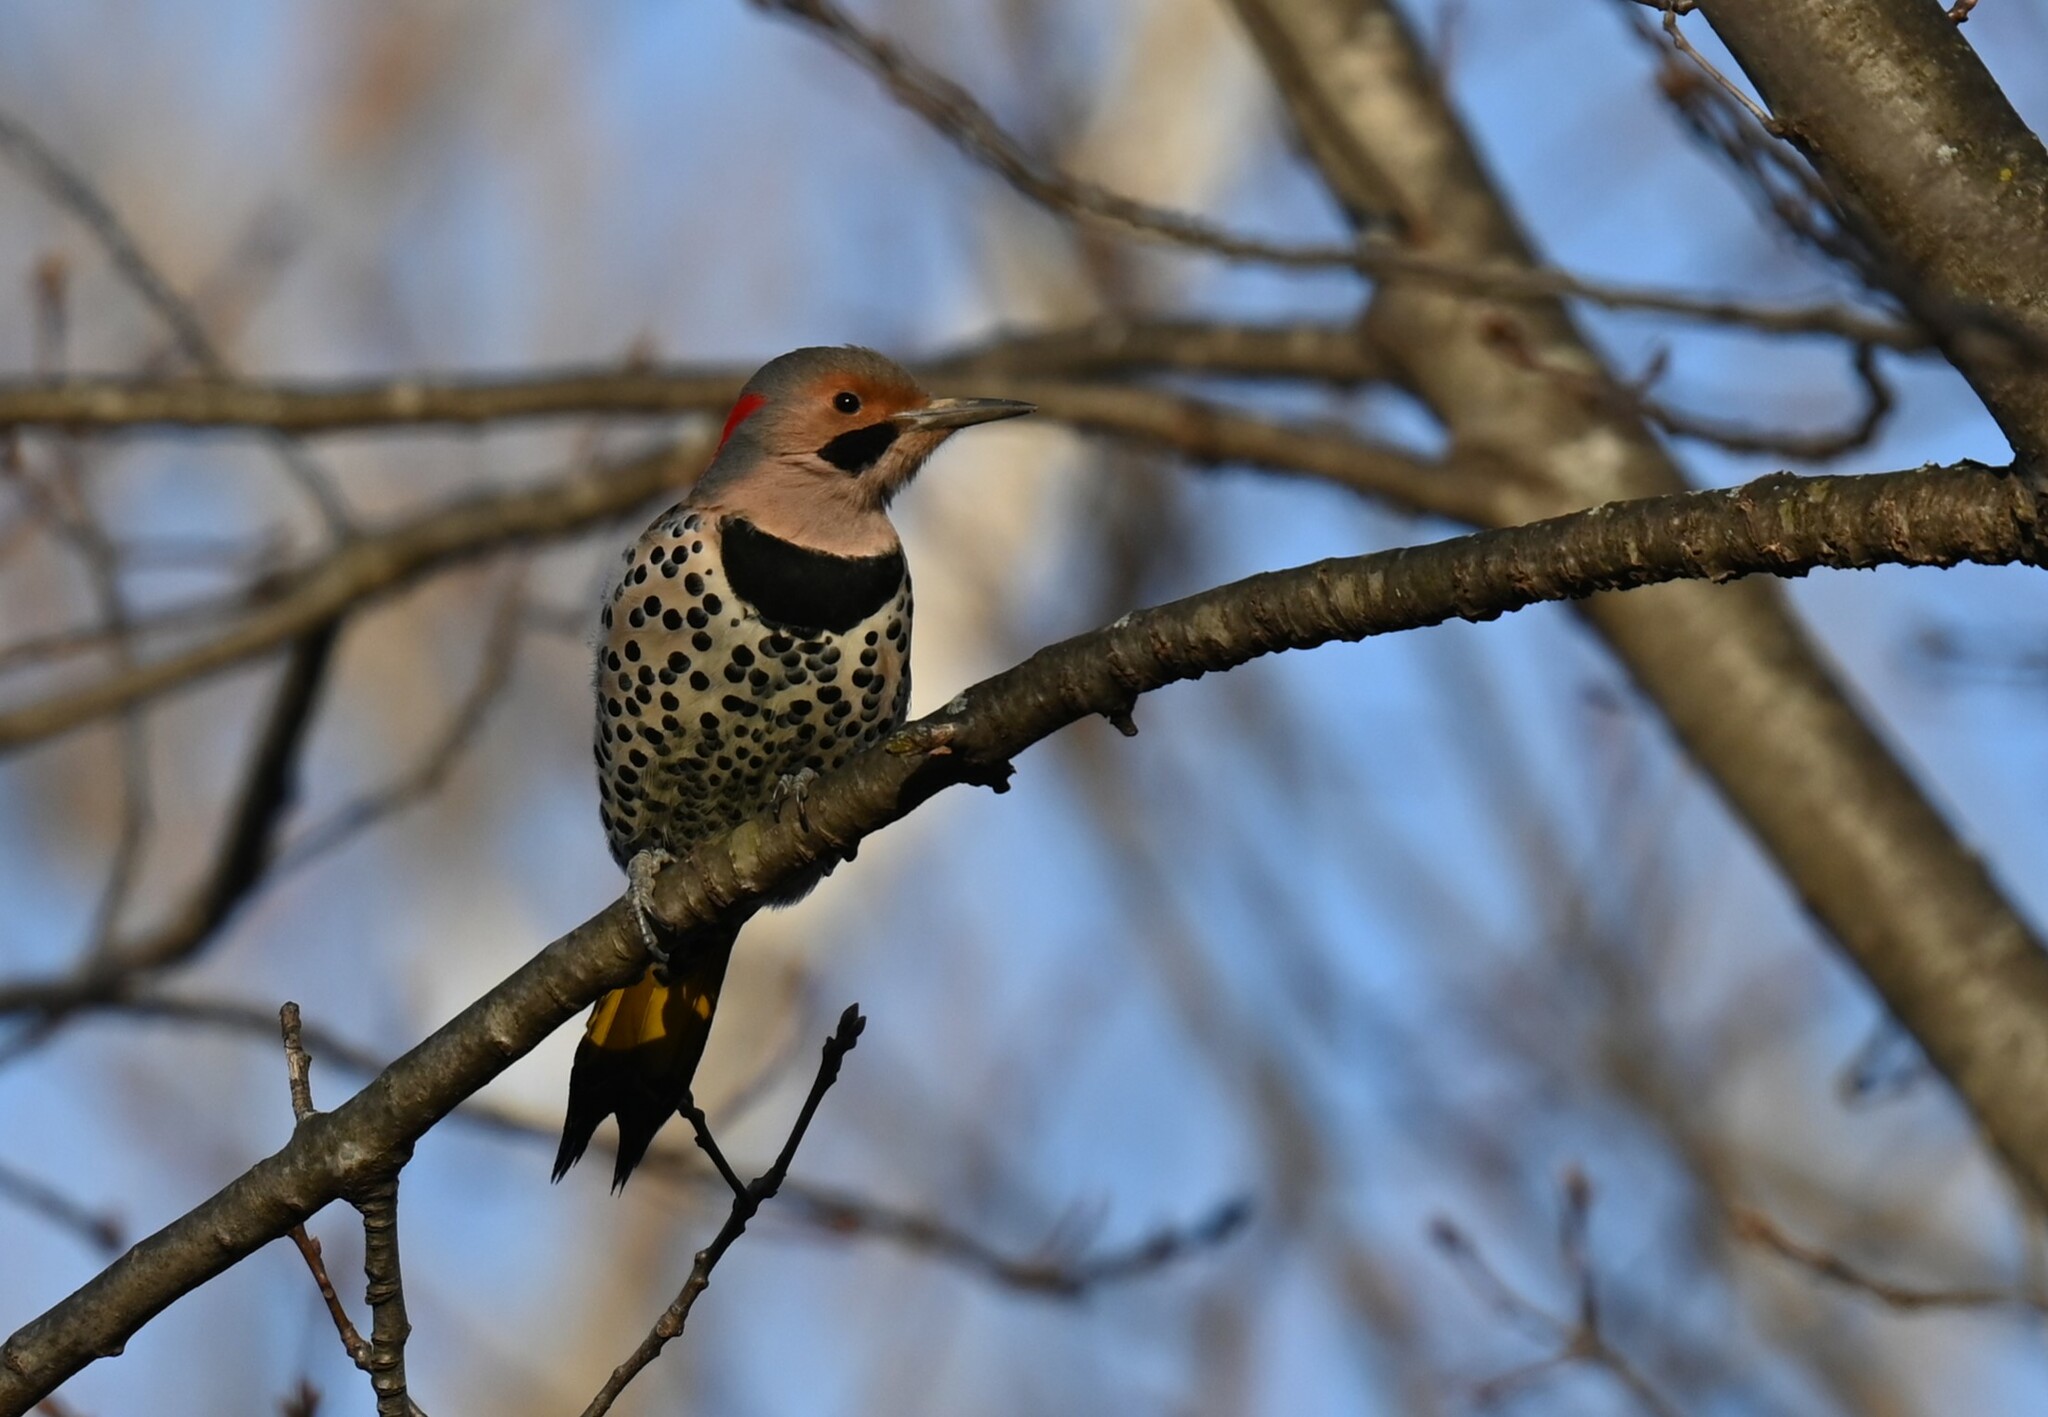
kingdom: Animalia
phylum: Chordata
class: Aves
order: Piciformes
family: Picidae
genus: Colaptes
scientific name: Colaptes auratus
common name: Northern flicker
